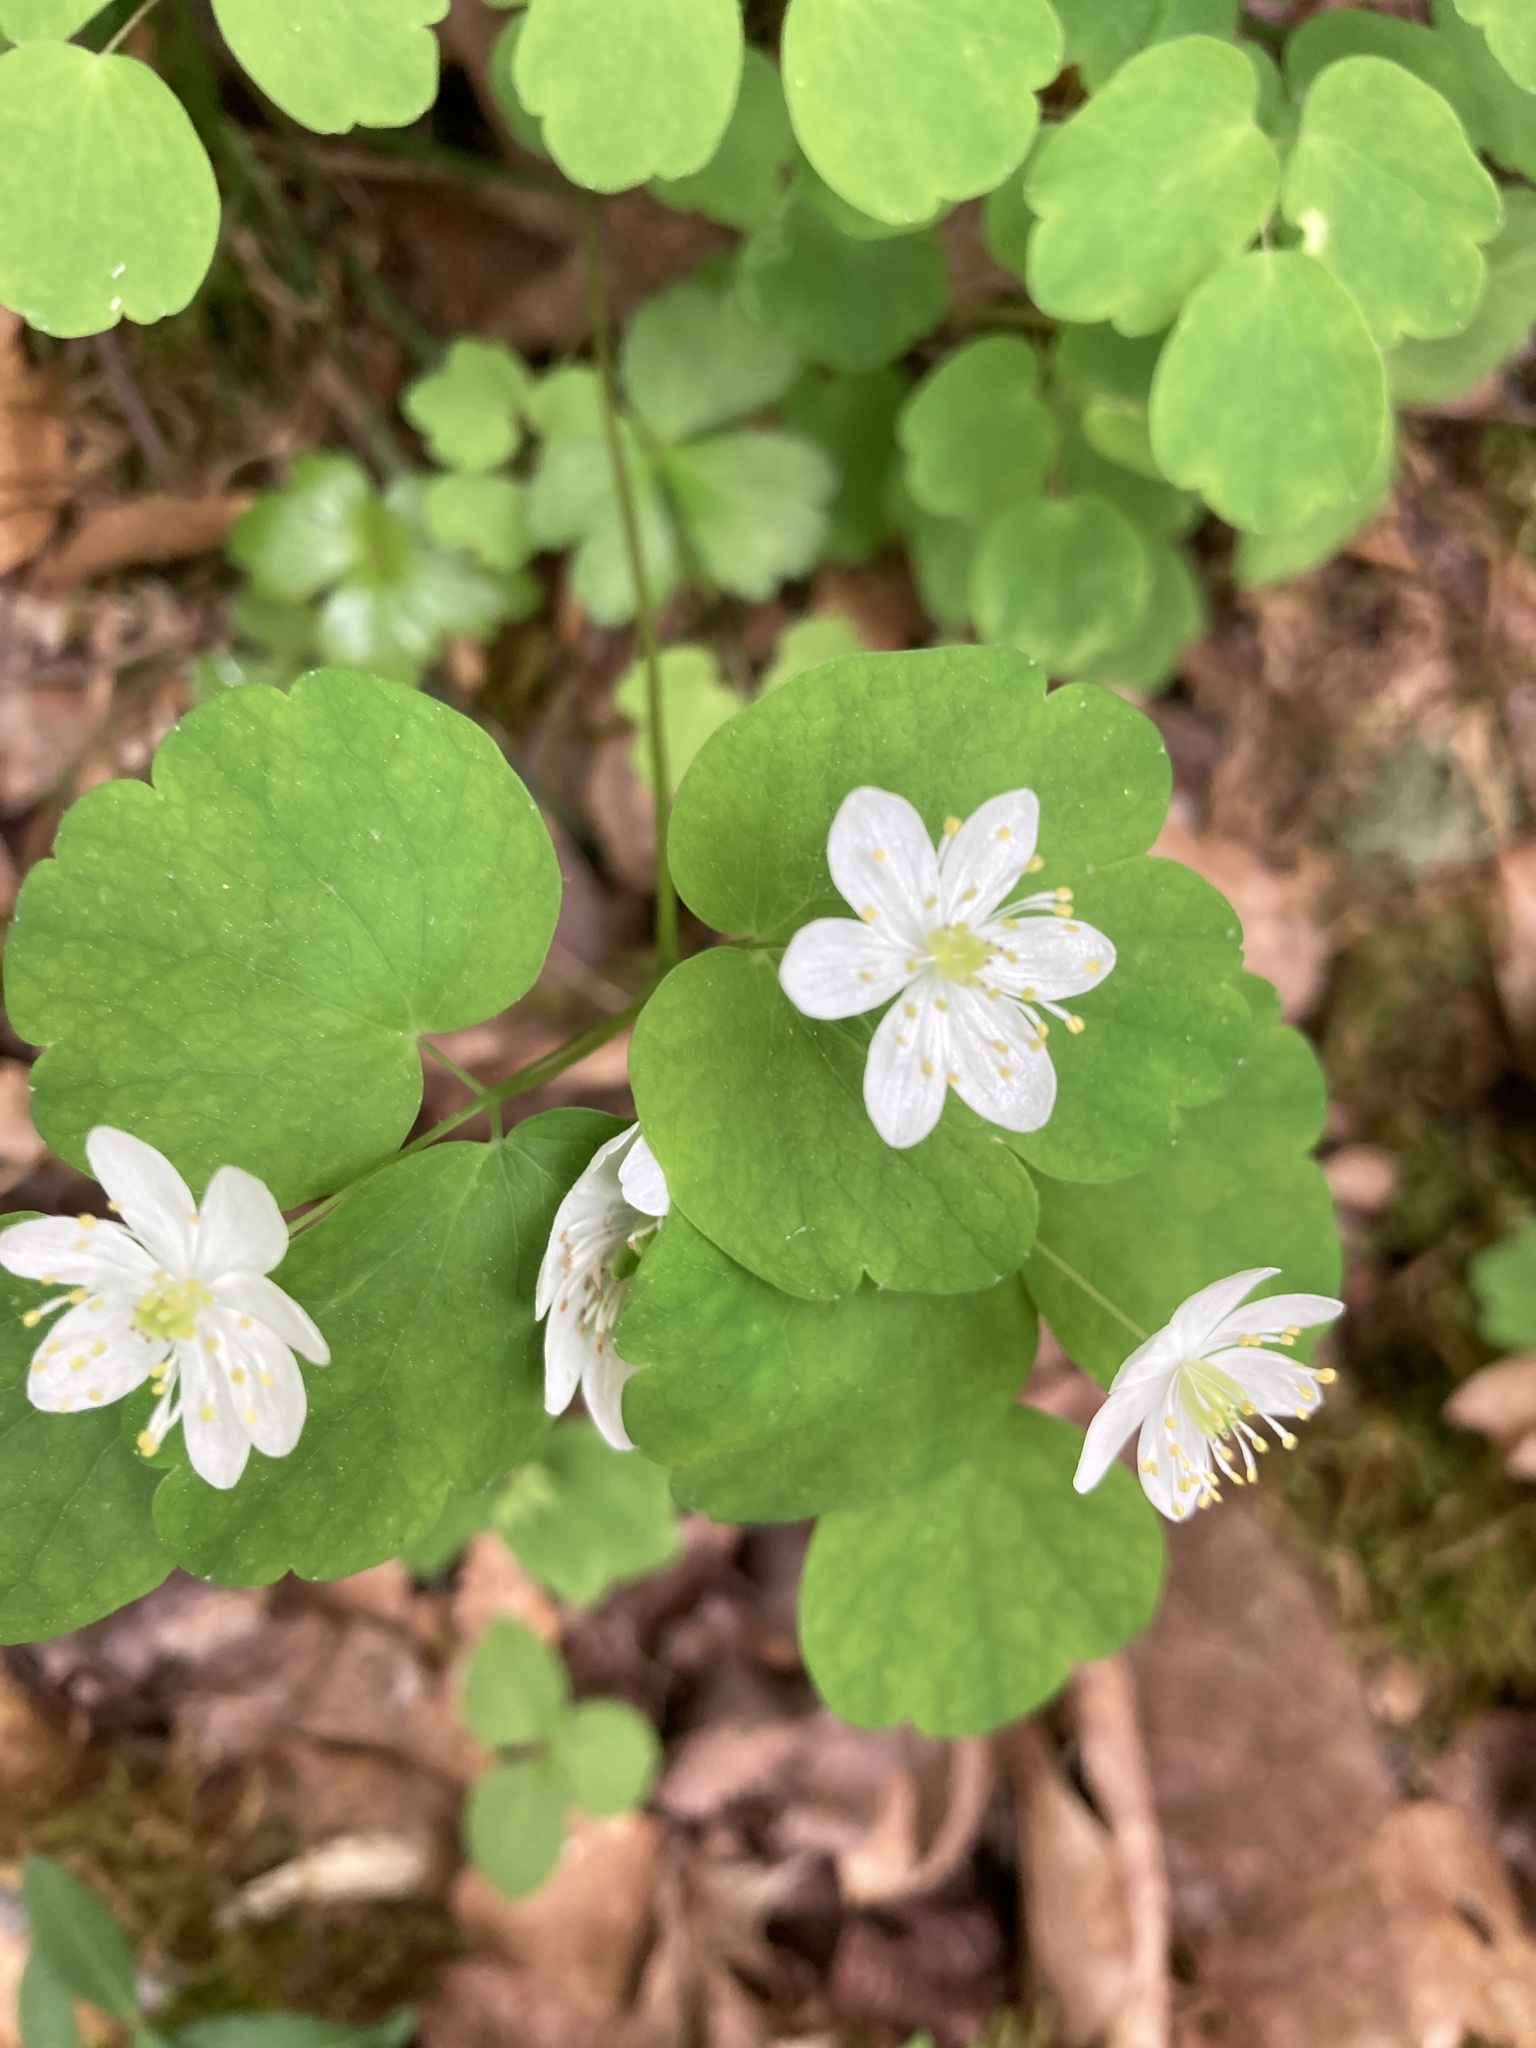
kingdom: Plantae
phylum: Tracheophyta
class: Magnoliopsida
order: Ranunculales
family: Ranunculaceae
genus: Thalictrum
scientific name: Thalictrum thalictroides
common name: Rue-anemone
